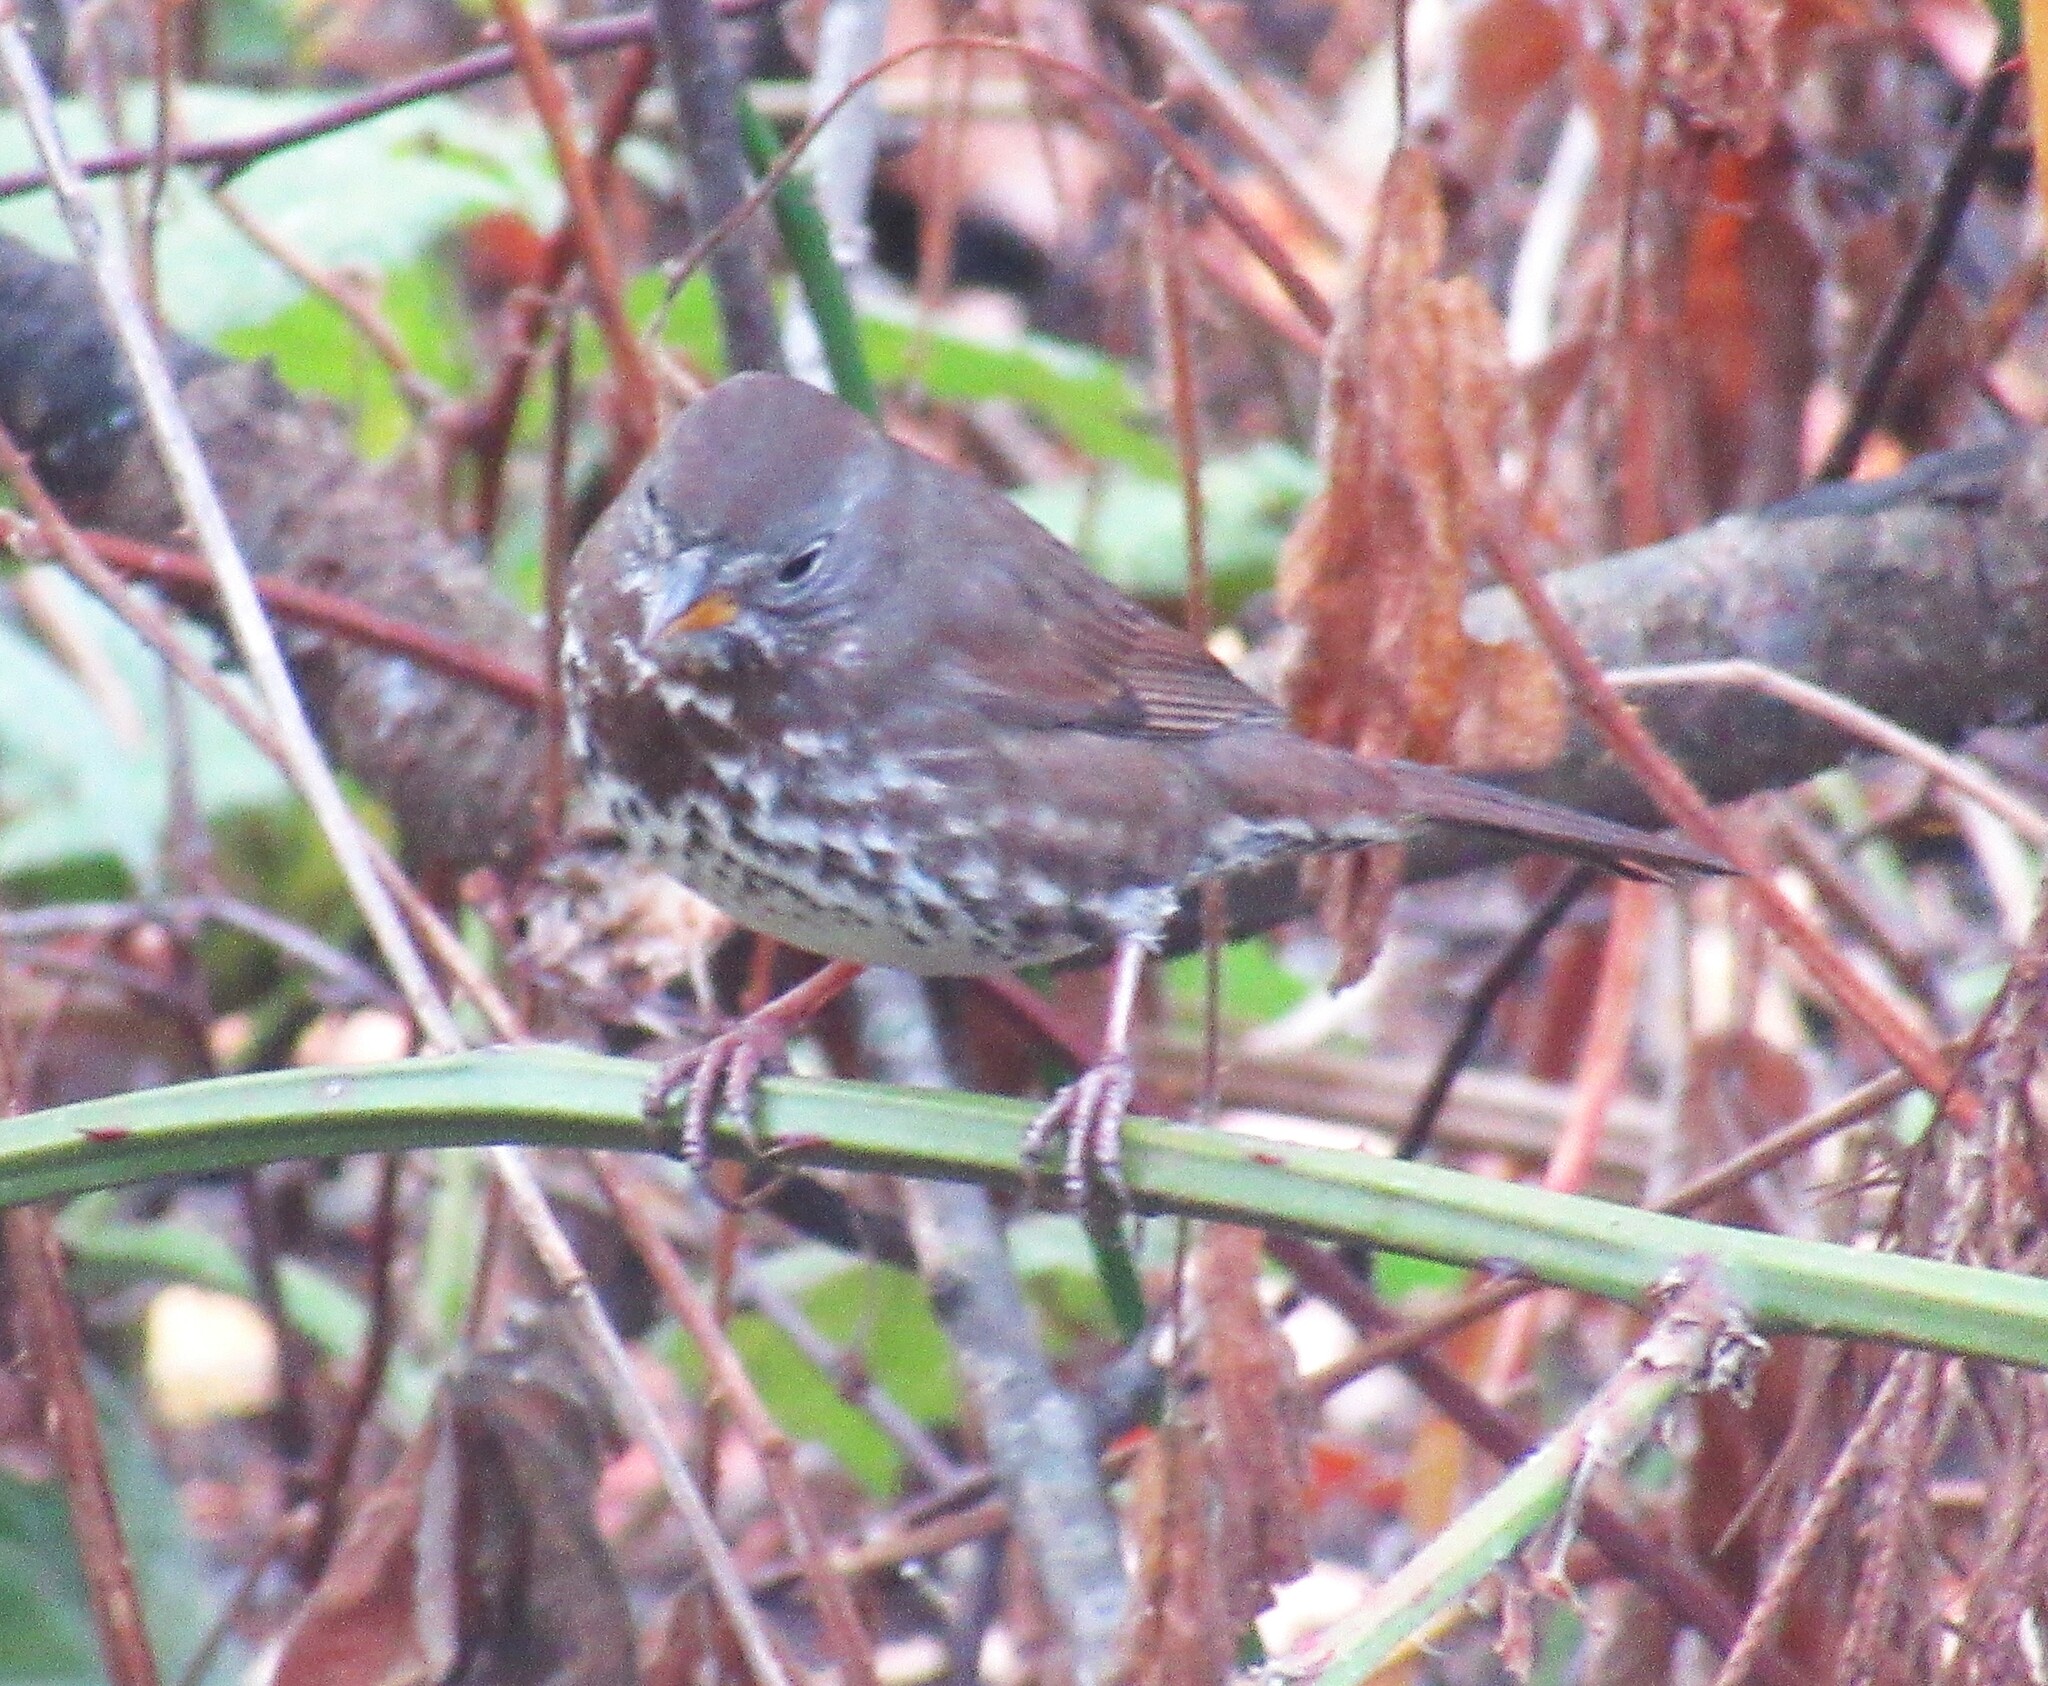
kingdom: Animalia
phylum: Chordata
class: Aves
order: Passeriformes
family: Passerellidae
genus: Passerella
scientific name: Passerella iliaca
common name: Fox sparrow
